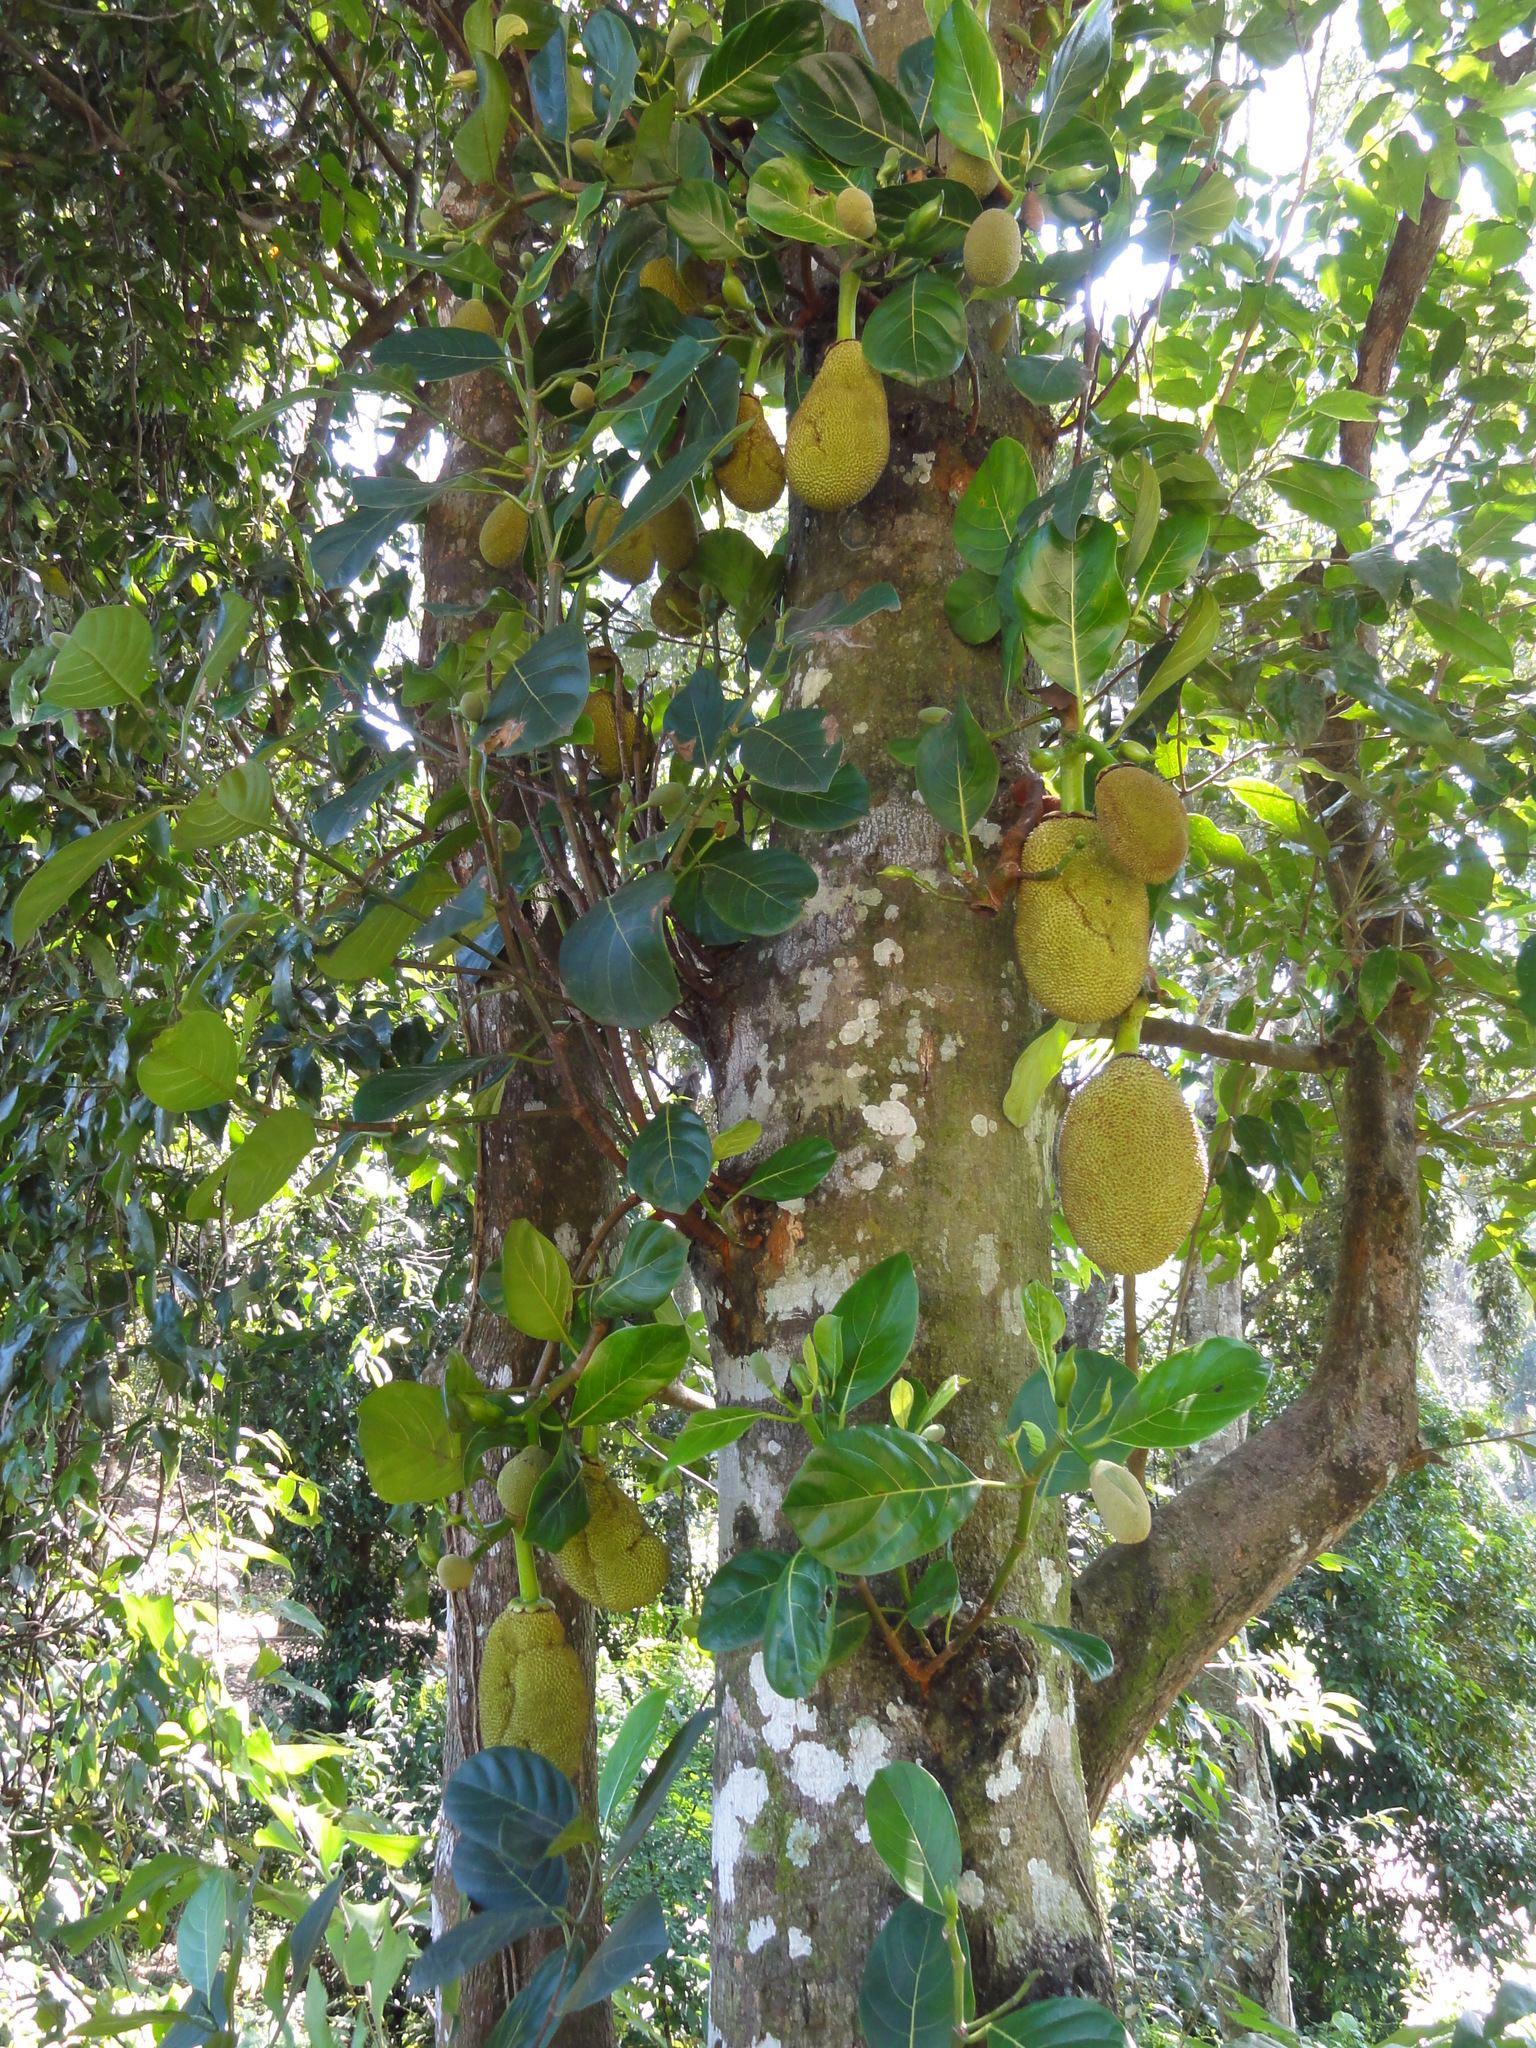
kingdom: Plantae
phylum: Tracheophyta
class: Magnoliopsida
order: Rosales
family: Moraceae
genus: Artocarpus
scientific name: Artocarpus heterophyllus
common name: Jackfruit
